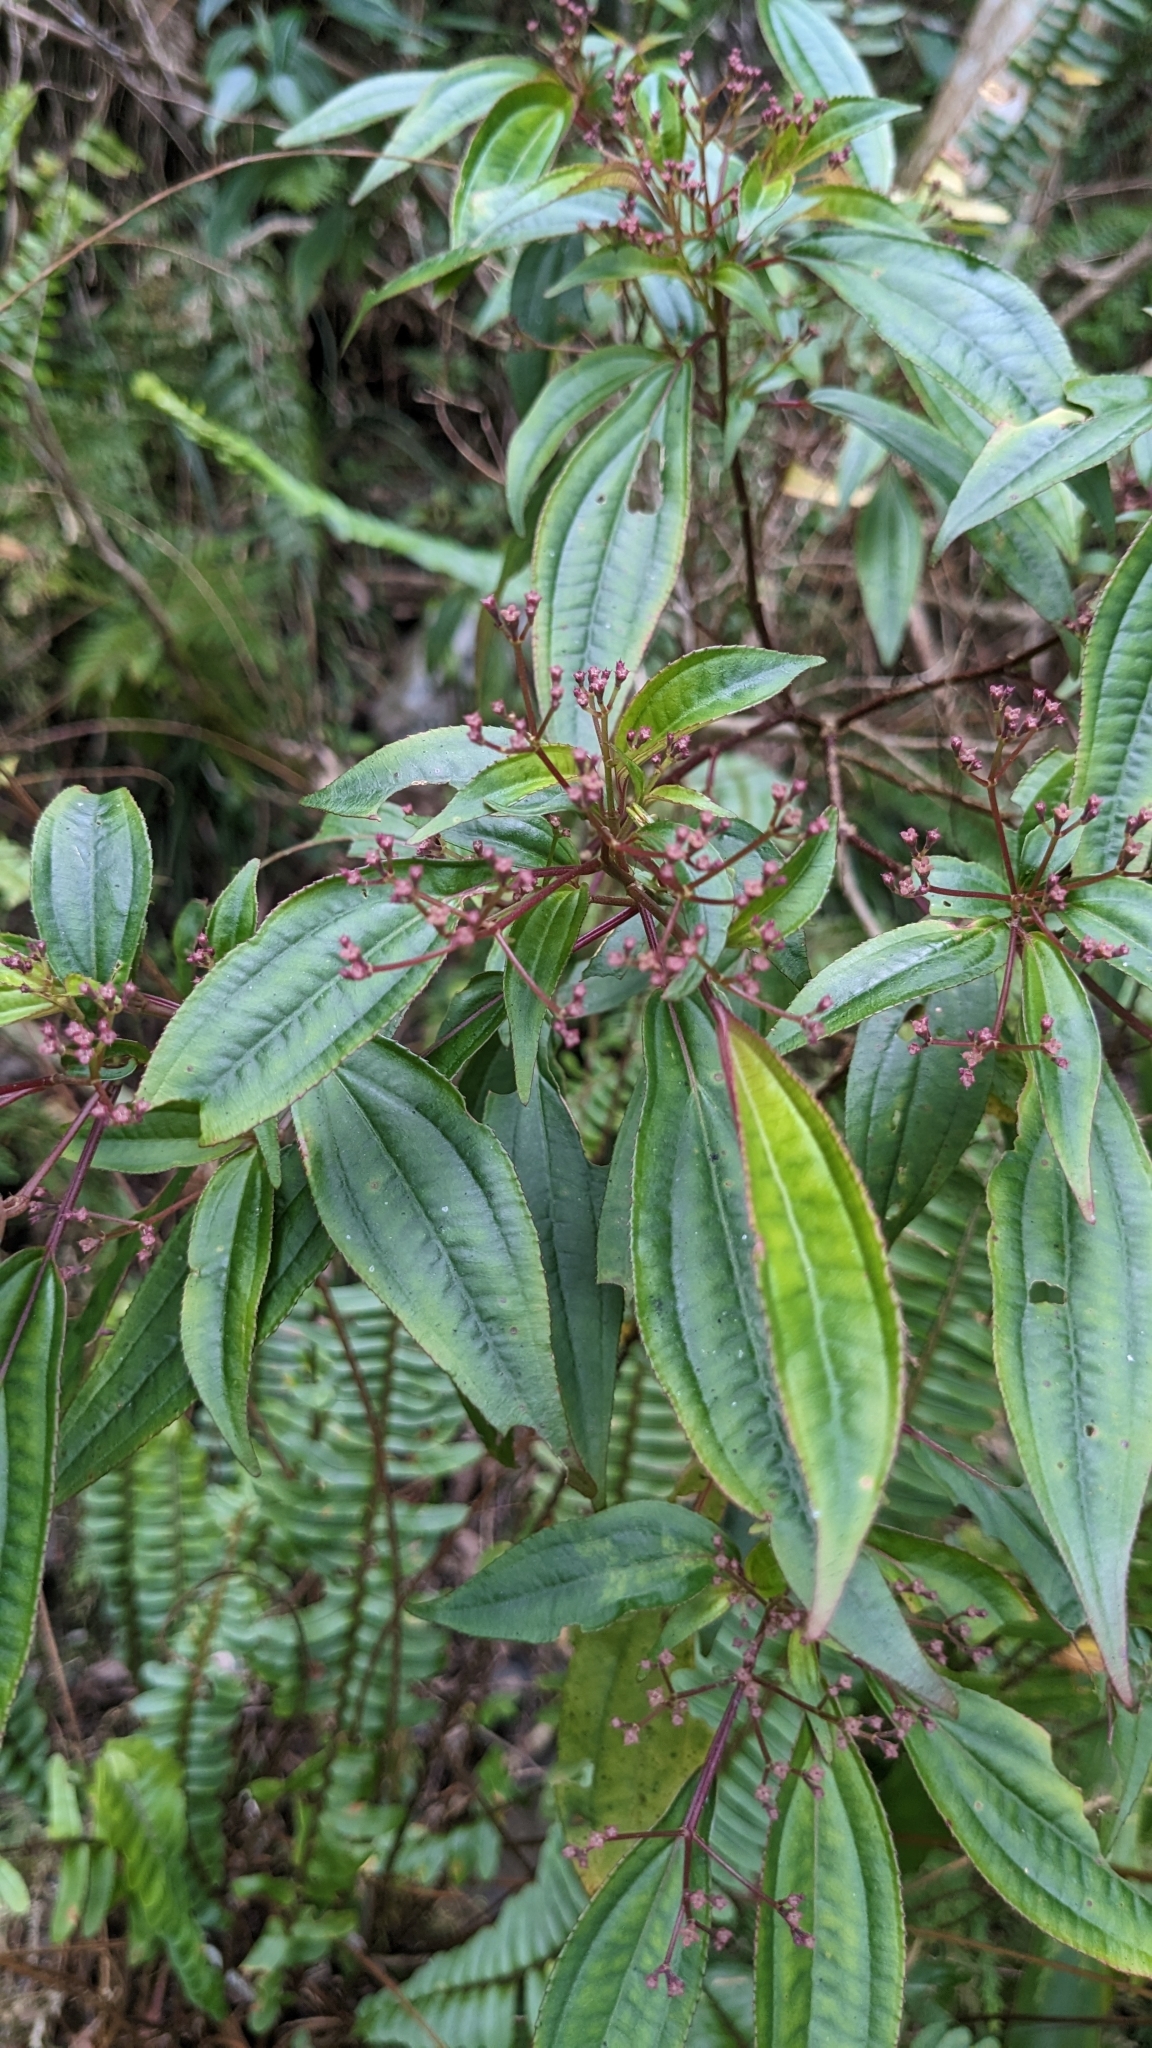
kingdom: Plantae
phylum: Tracheophyta
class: Magnoliopsida
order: Myrtales
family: Melastomataceae
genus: Bredia
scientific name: Bredia oldhamii
